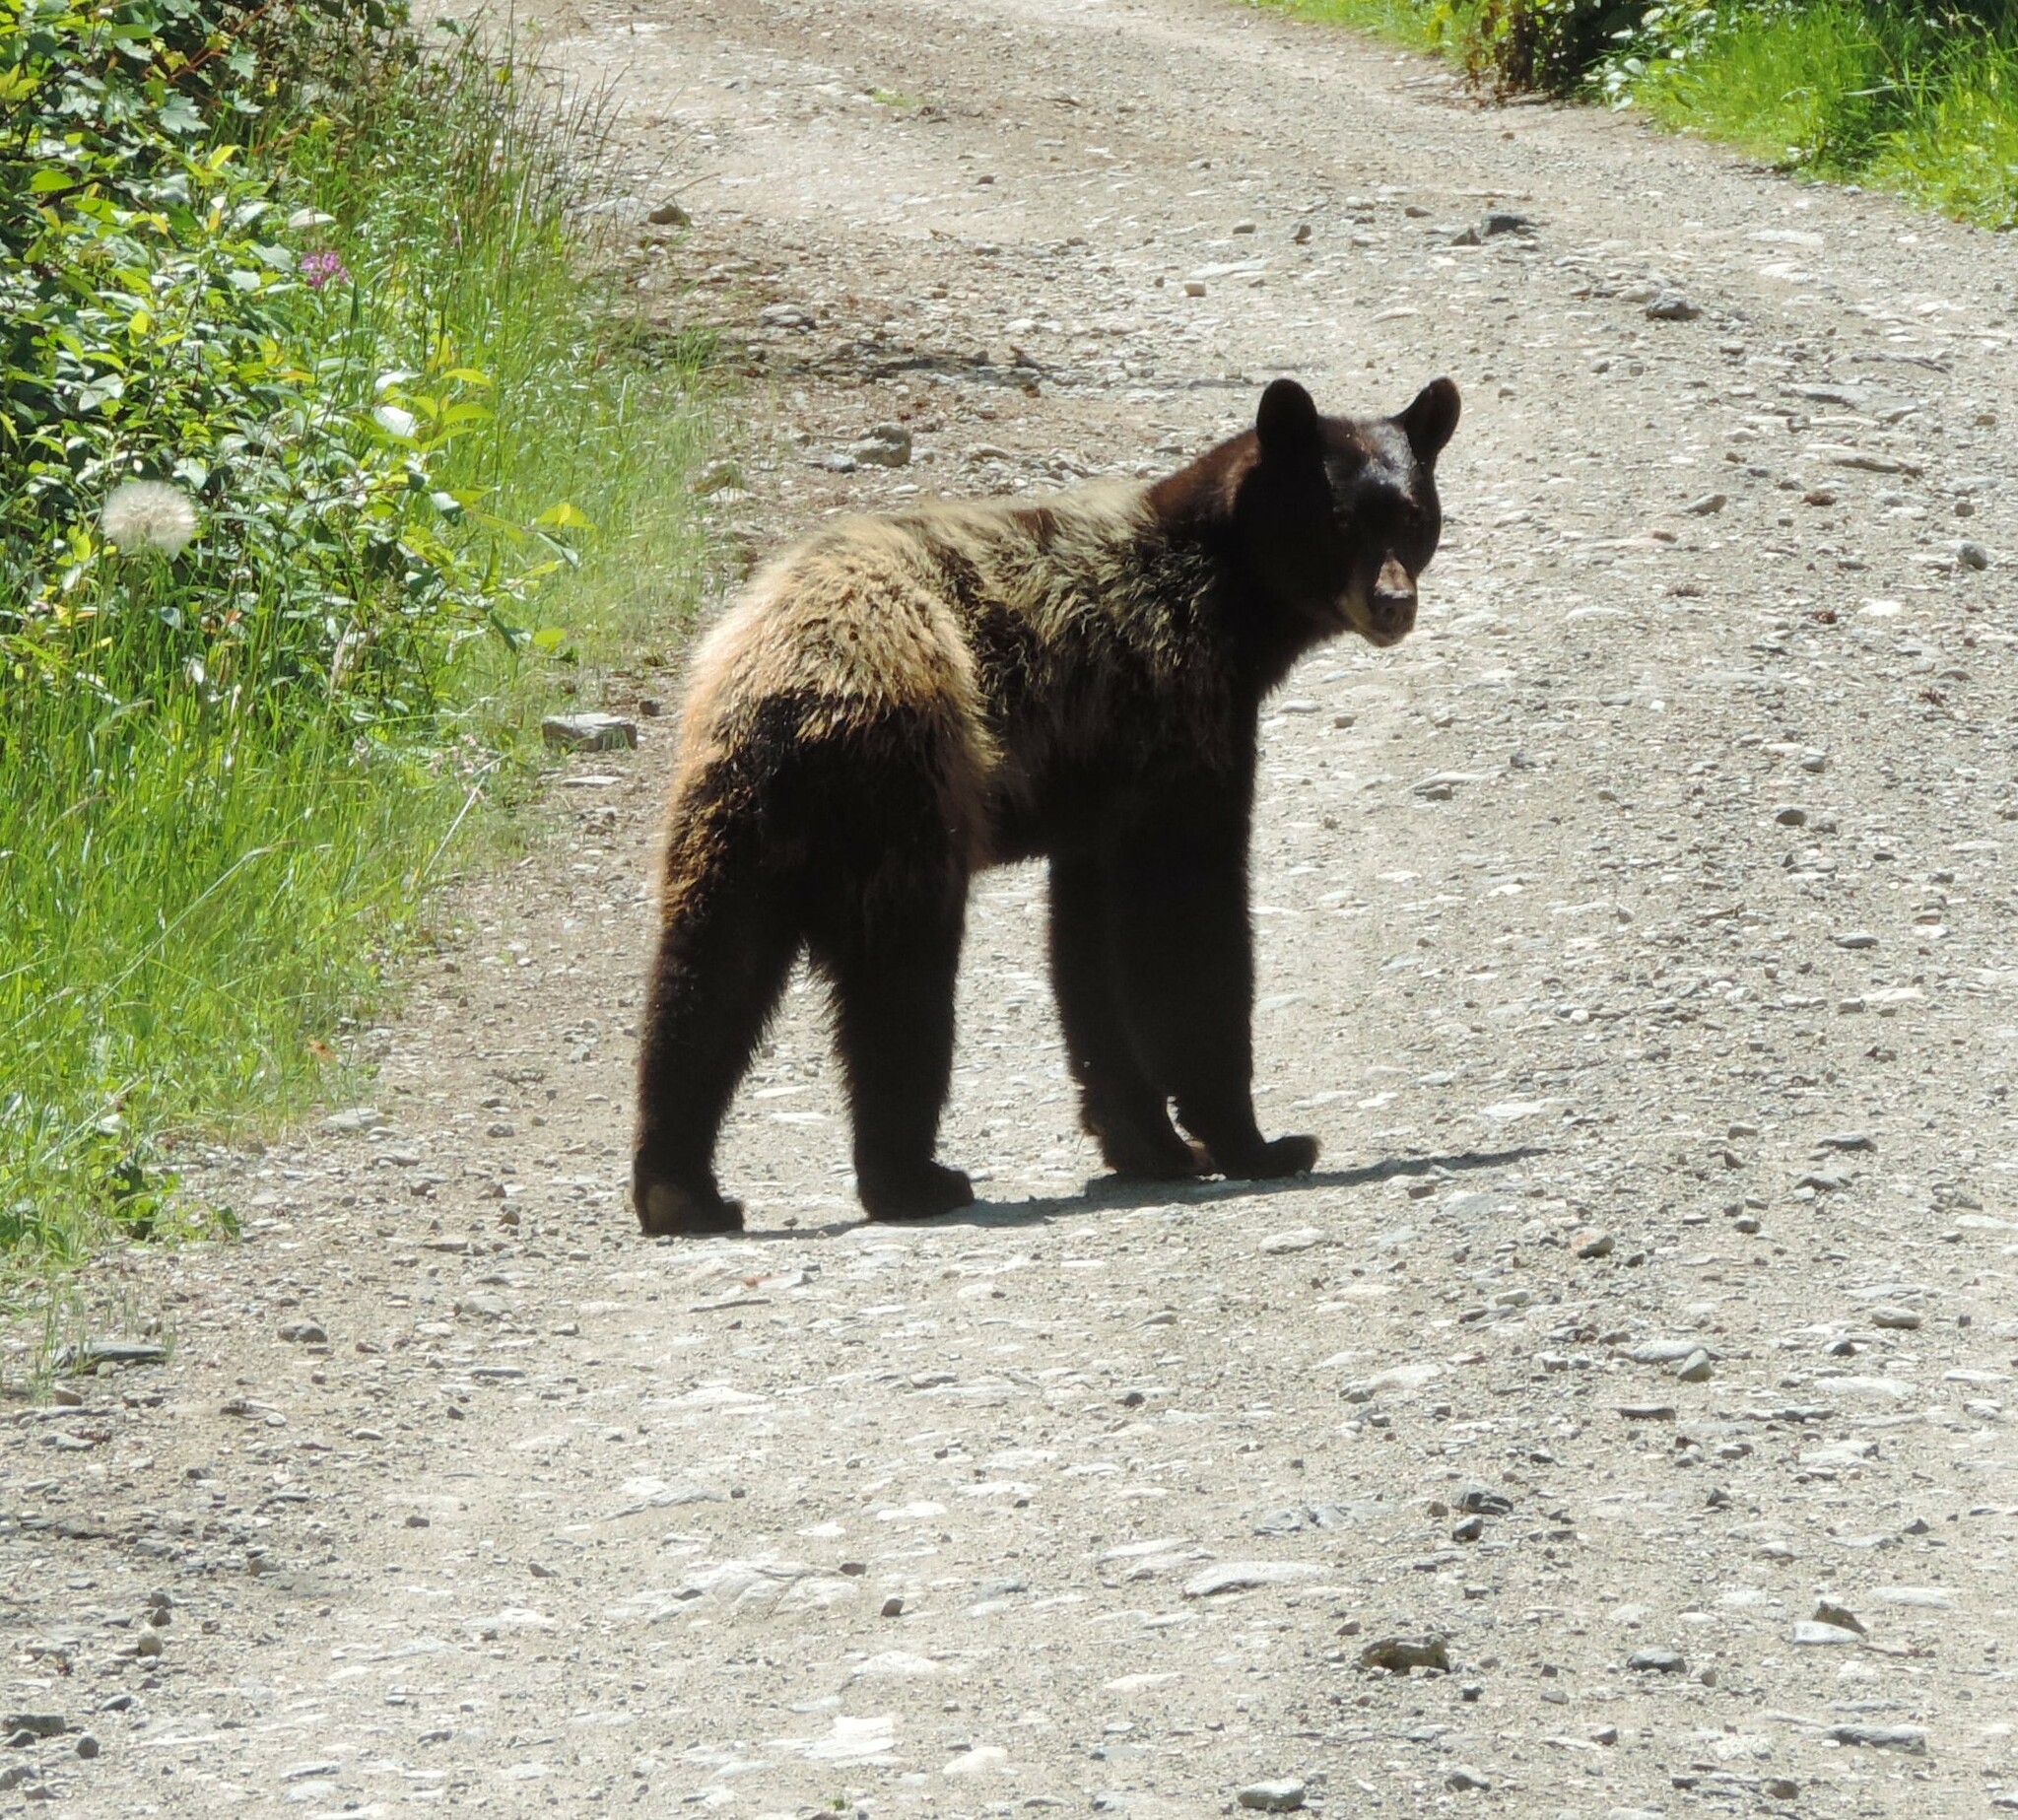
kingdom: Animalia
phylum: Chordata
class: Mammalia
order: Carnivora
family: Ursidae
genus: Ursus
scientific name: Ursus americanus
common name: American black bear
